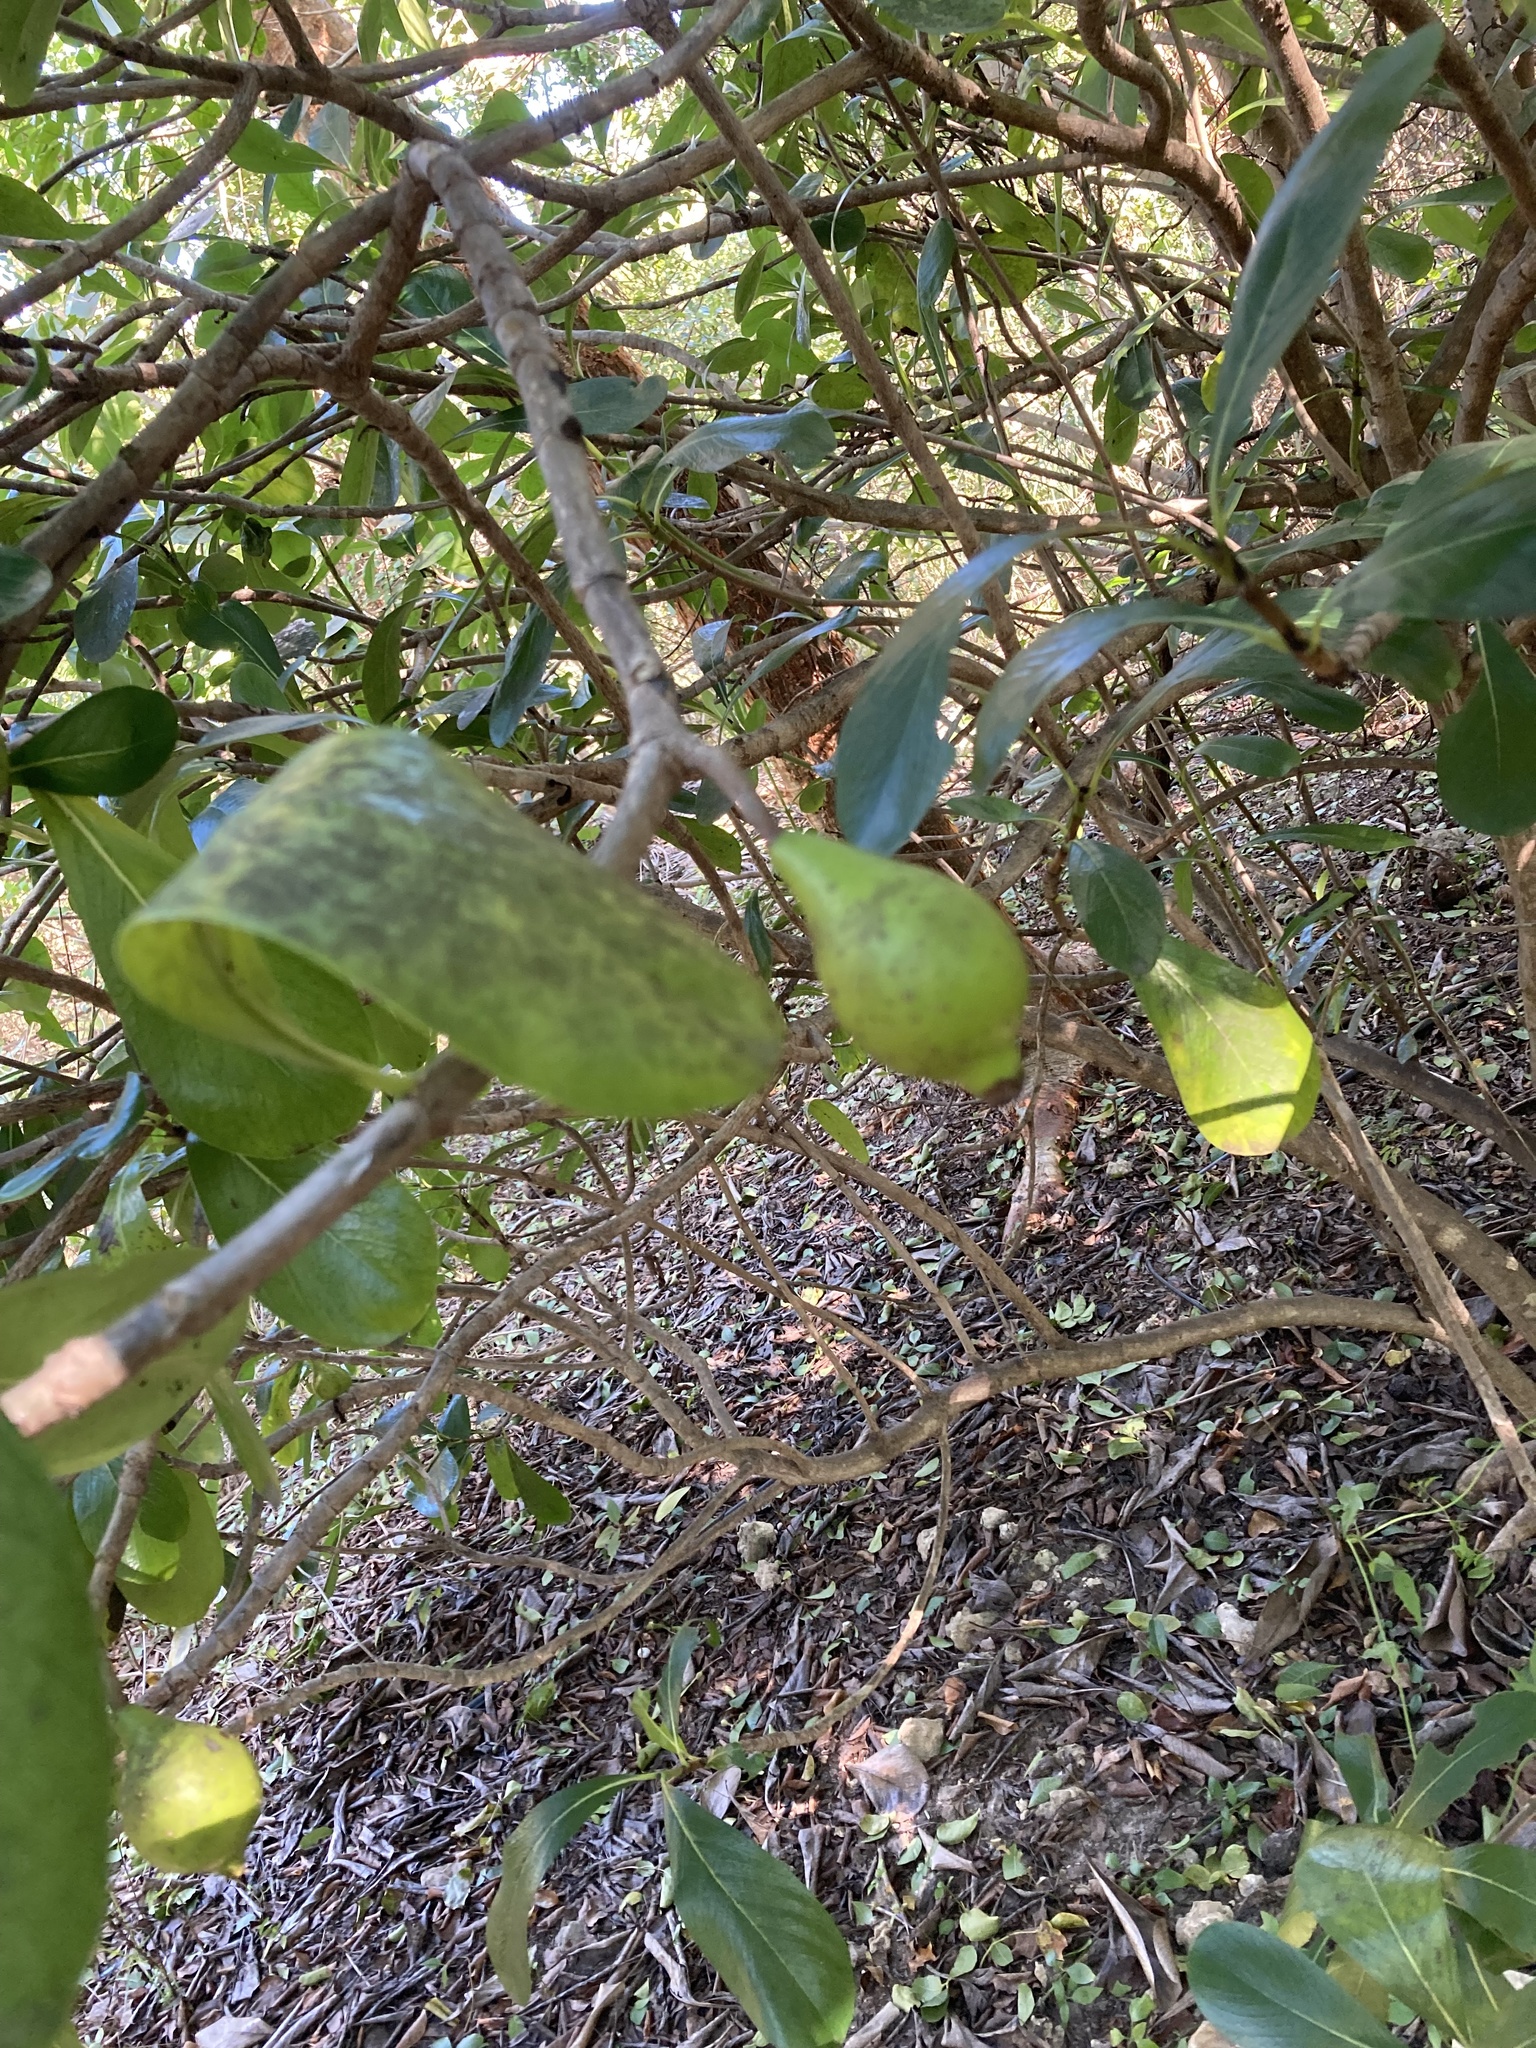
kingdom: Plantae
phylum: Tracheophyta
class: Magnoliopsida
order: Gentianales
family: Rubiaceae
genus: Casasia
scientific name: Casasia clusiifolia
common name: Seven-year apple
